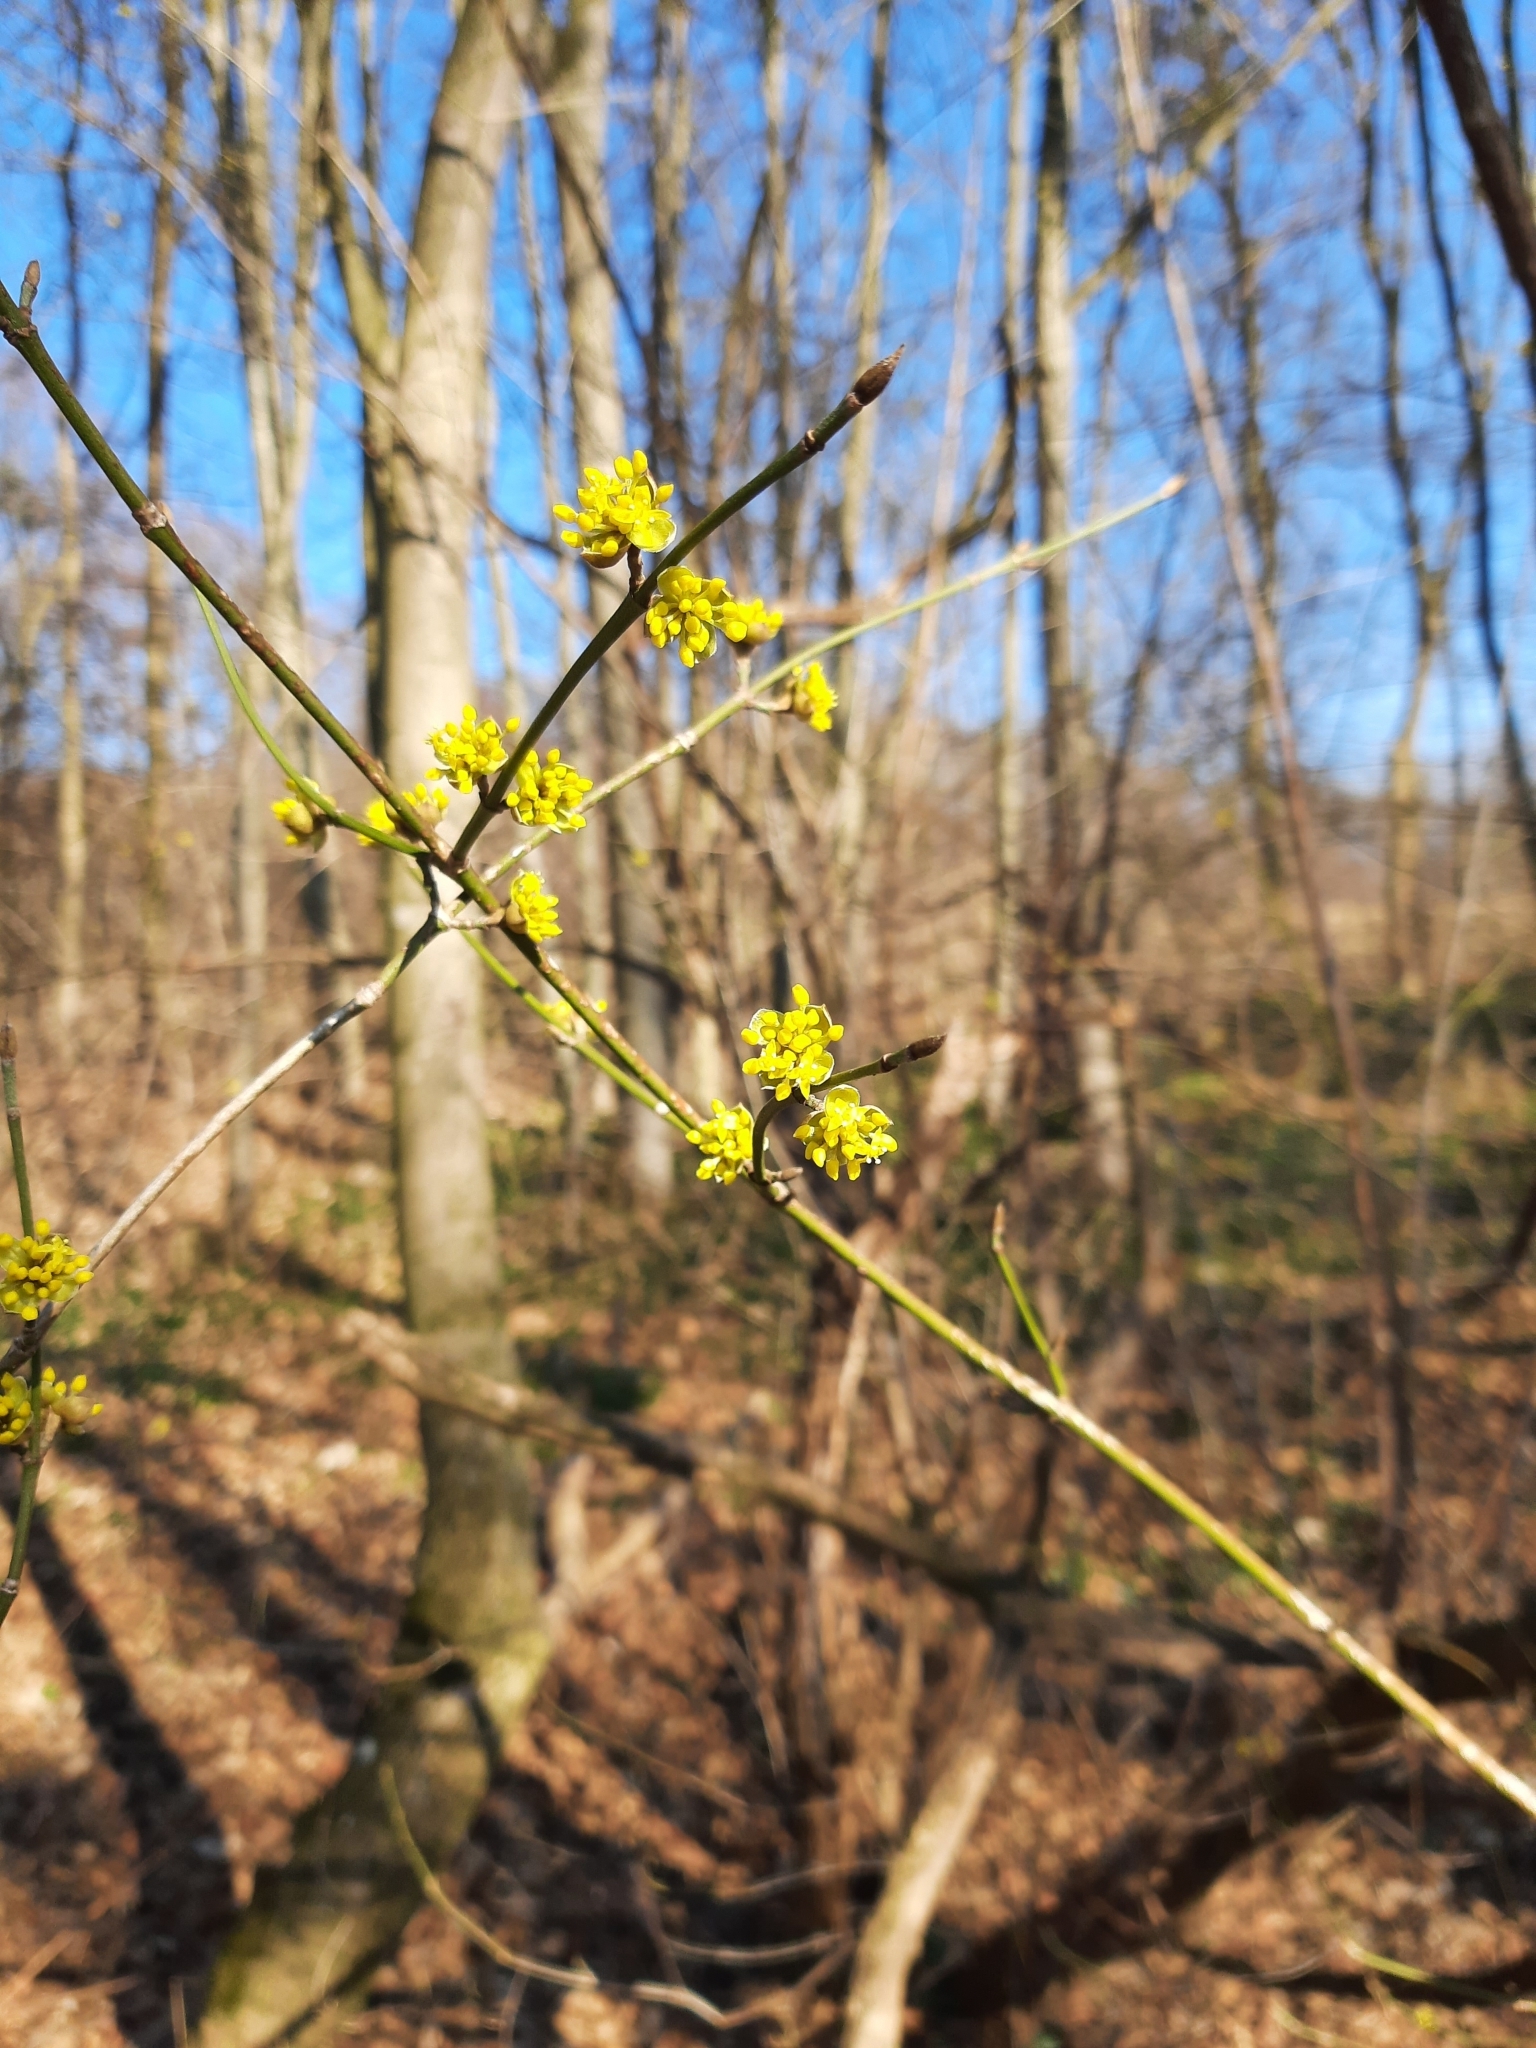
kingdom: Plantae
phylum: Tracheophyta
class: Magnoliopsida
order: Cornales
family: Cornaceae
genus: Cornus
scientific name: Cornus mas
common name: Cornelian-cherry
